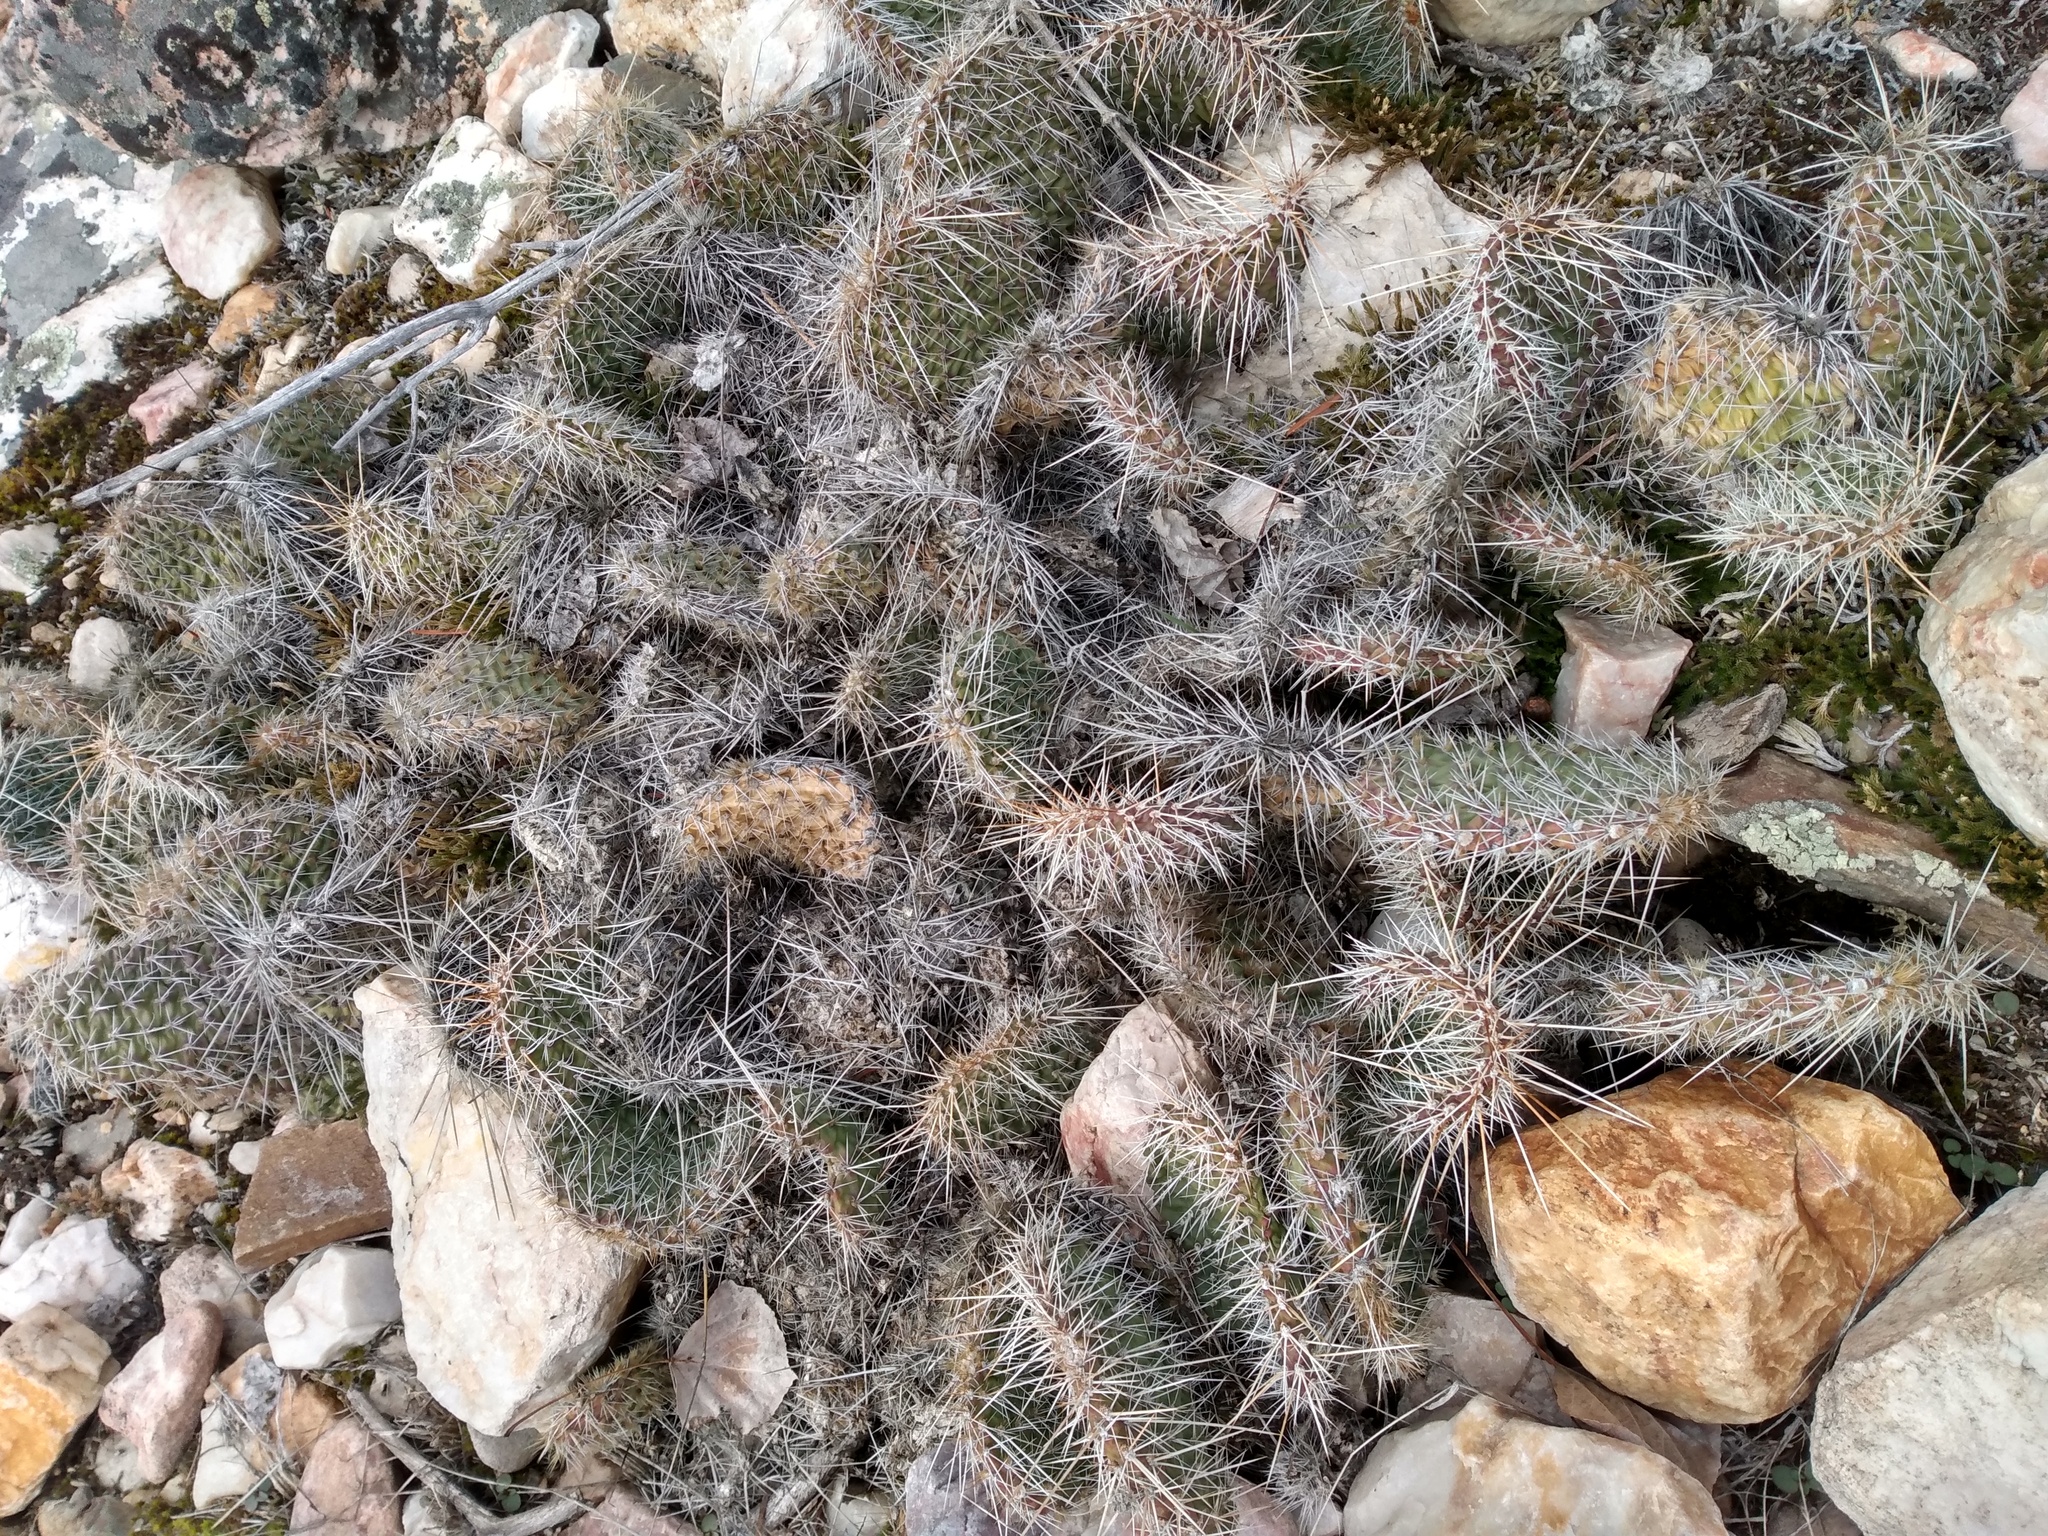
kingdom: Plantae
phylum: Tracheophyta
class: Magnoliopsida
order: Caryophyllales
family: Cactaceae
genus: Opuntia
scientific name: Opuntia polyacantha
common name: Plains prickly-pear
